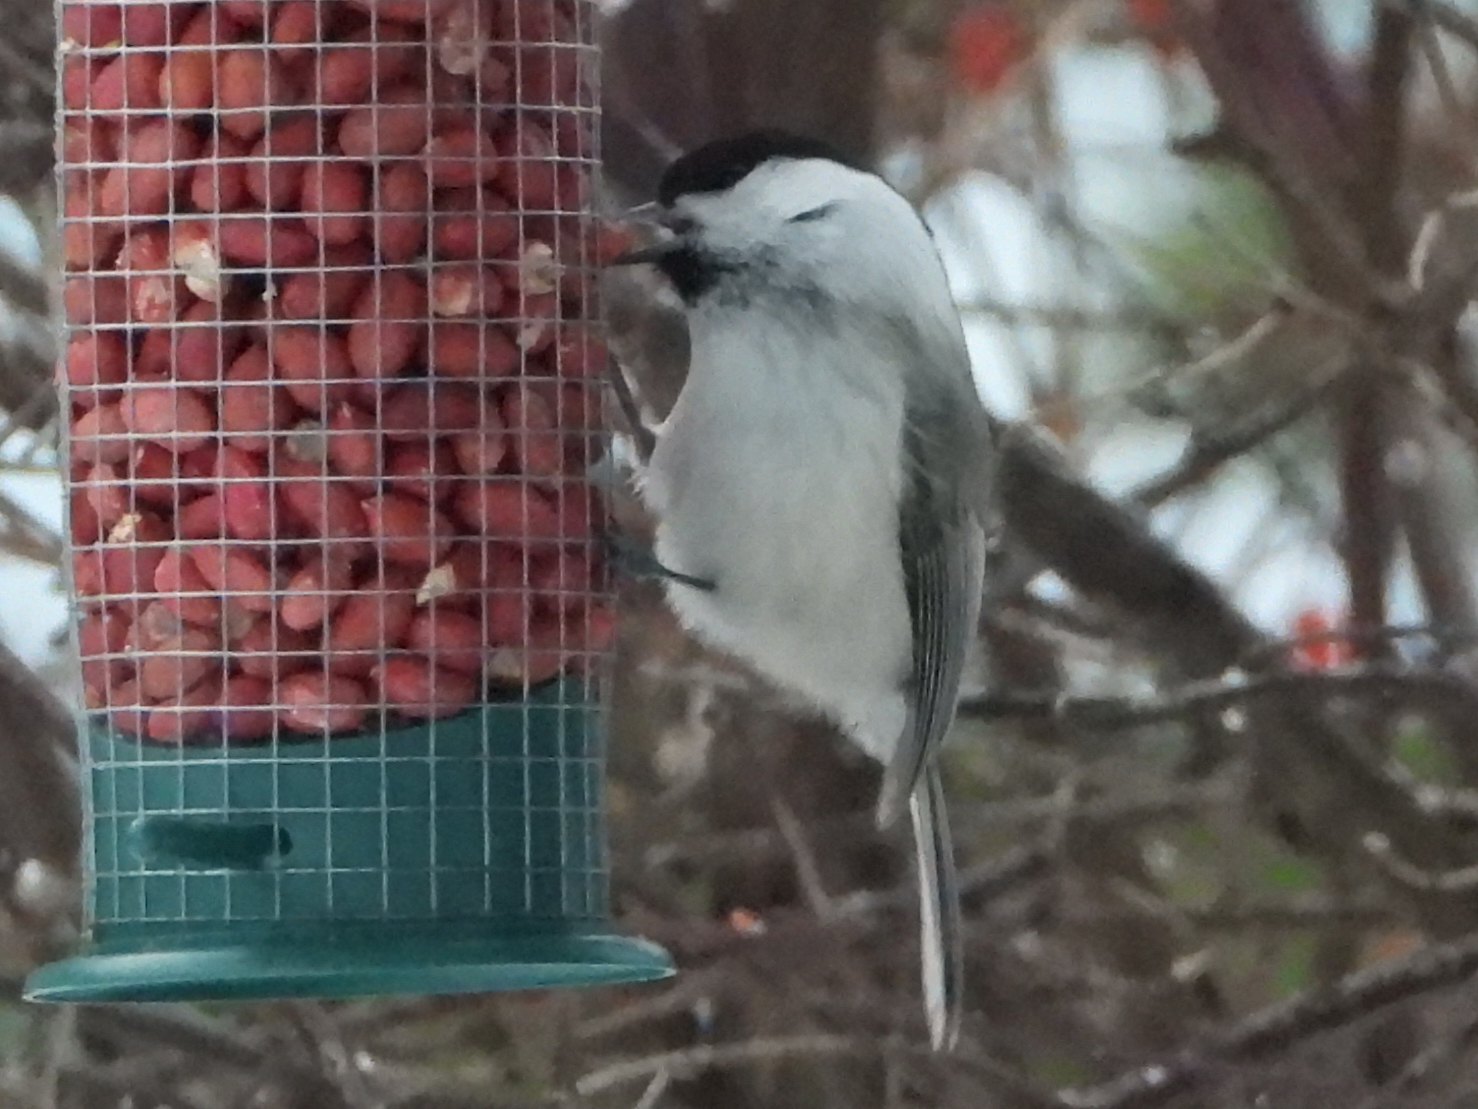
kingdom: Animalia
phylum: Chordata
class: Aves
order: Passeriformes
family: Paridae
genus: Poecile
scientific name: Poecile montanus
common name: Willow tit
